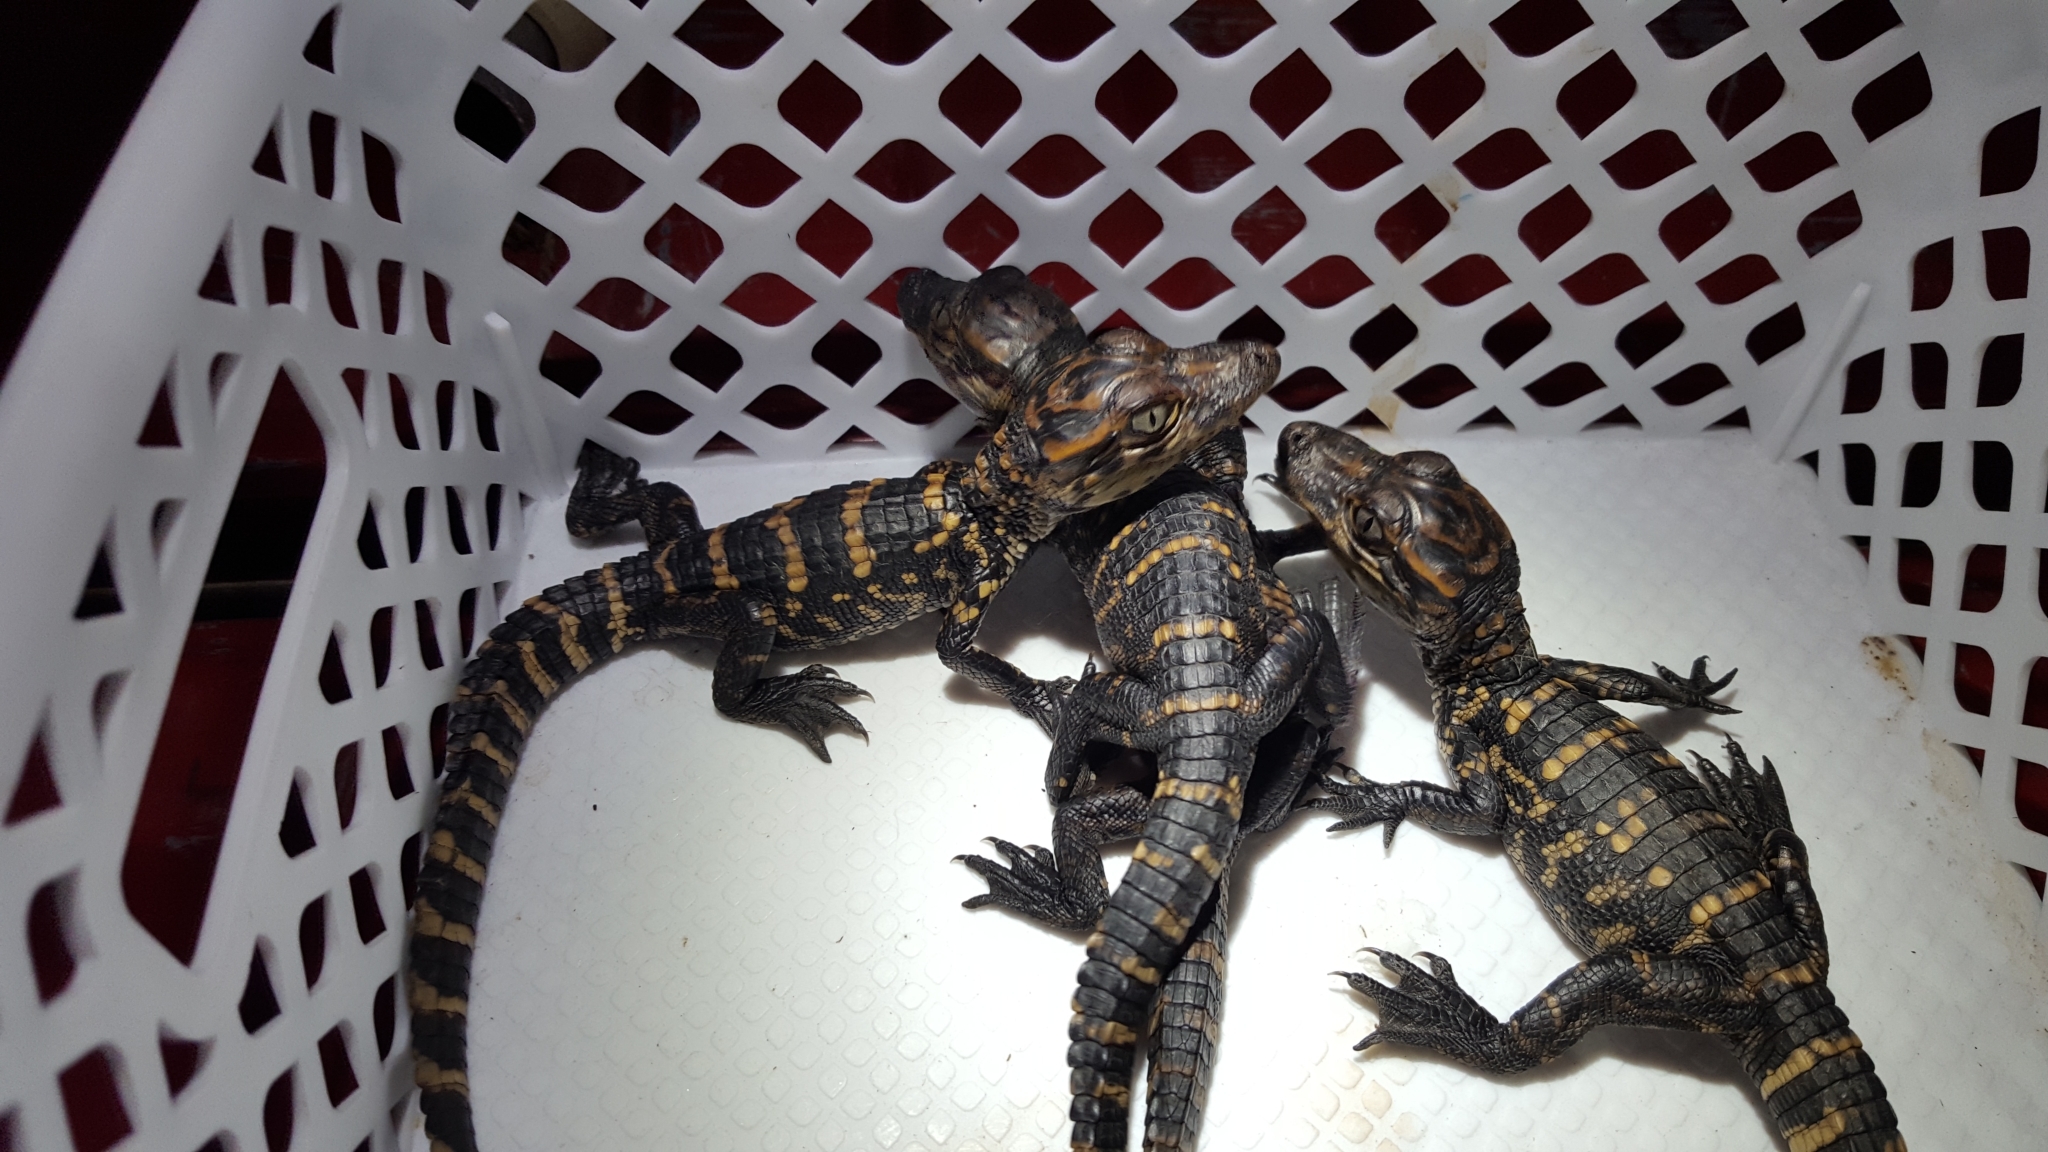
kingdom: Animalia
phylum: Chordata
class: Crocodylia
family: Alligatoridae
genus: Alligator
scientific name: Alligator mississippiensis
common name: American alligator
